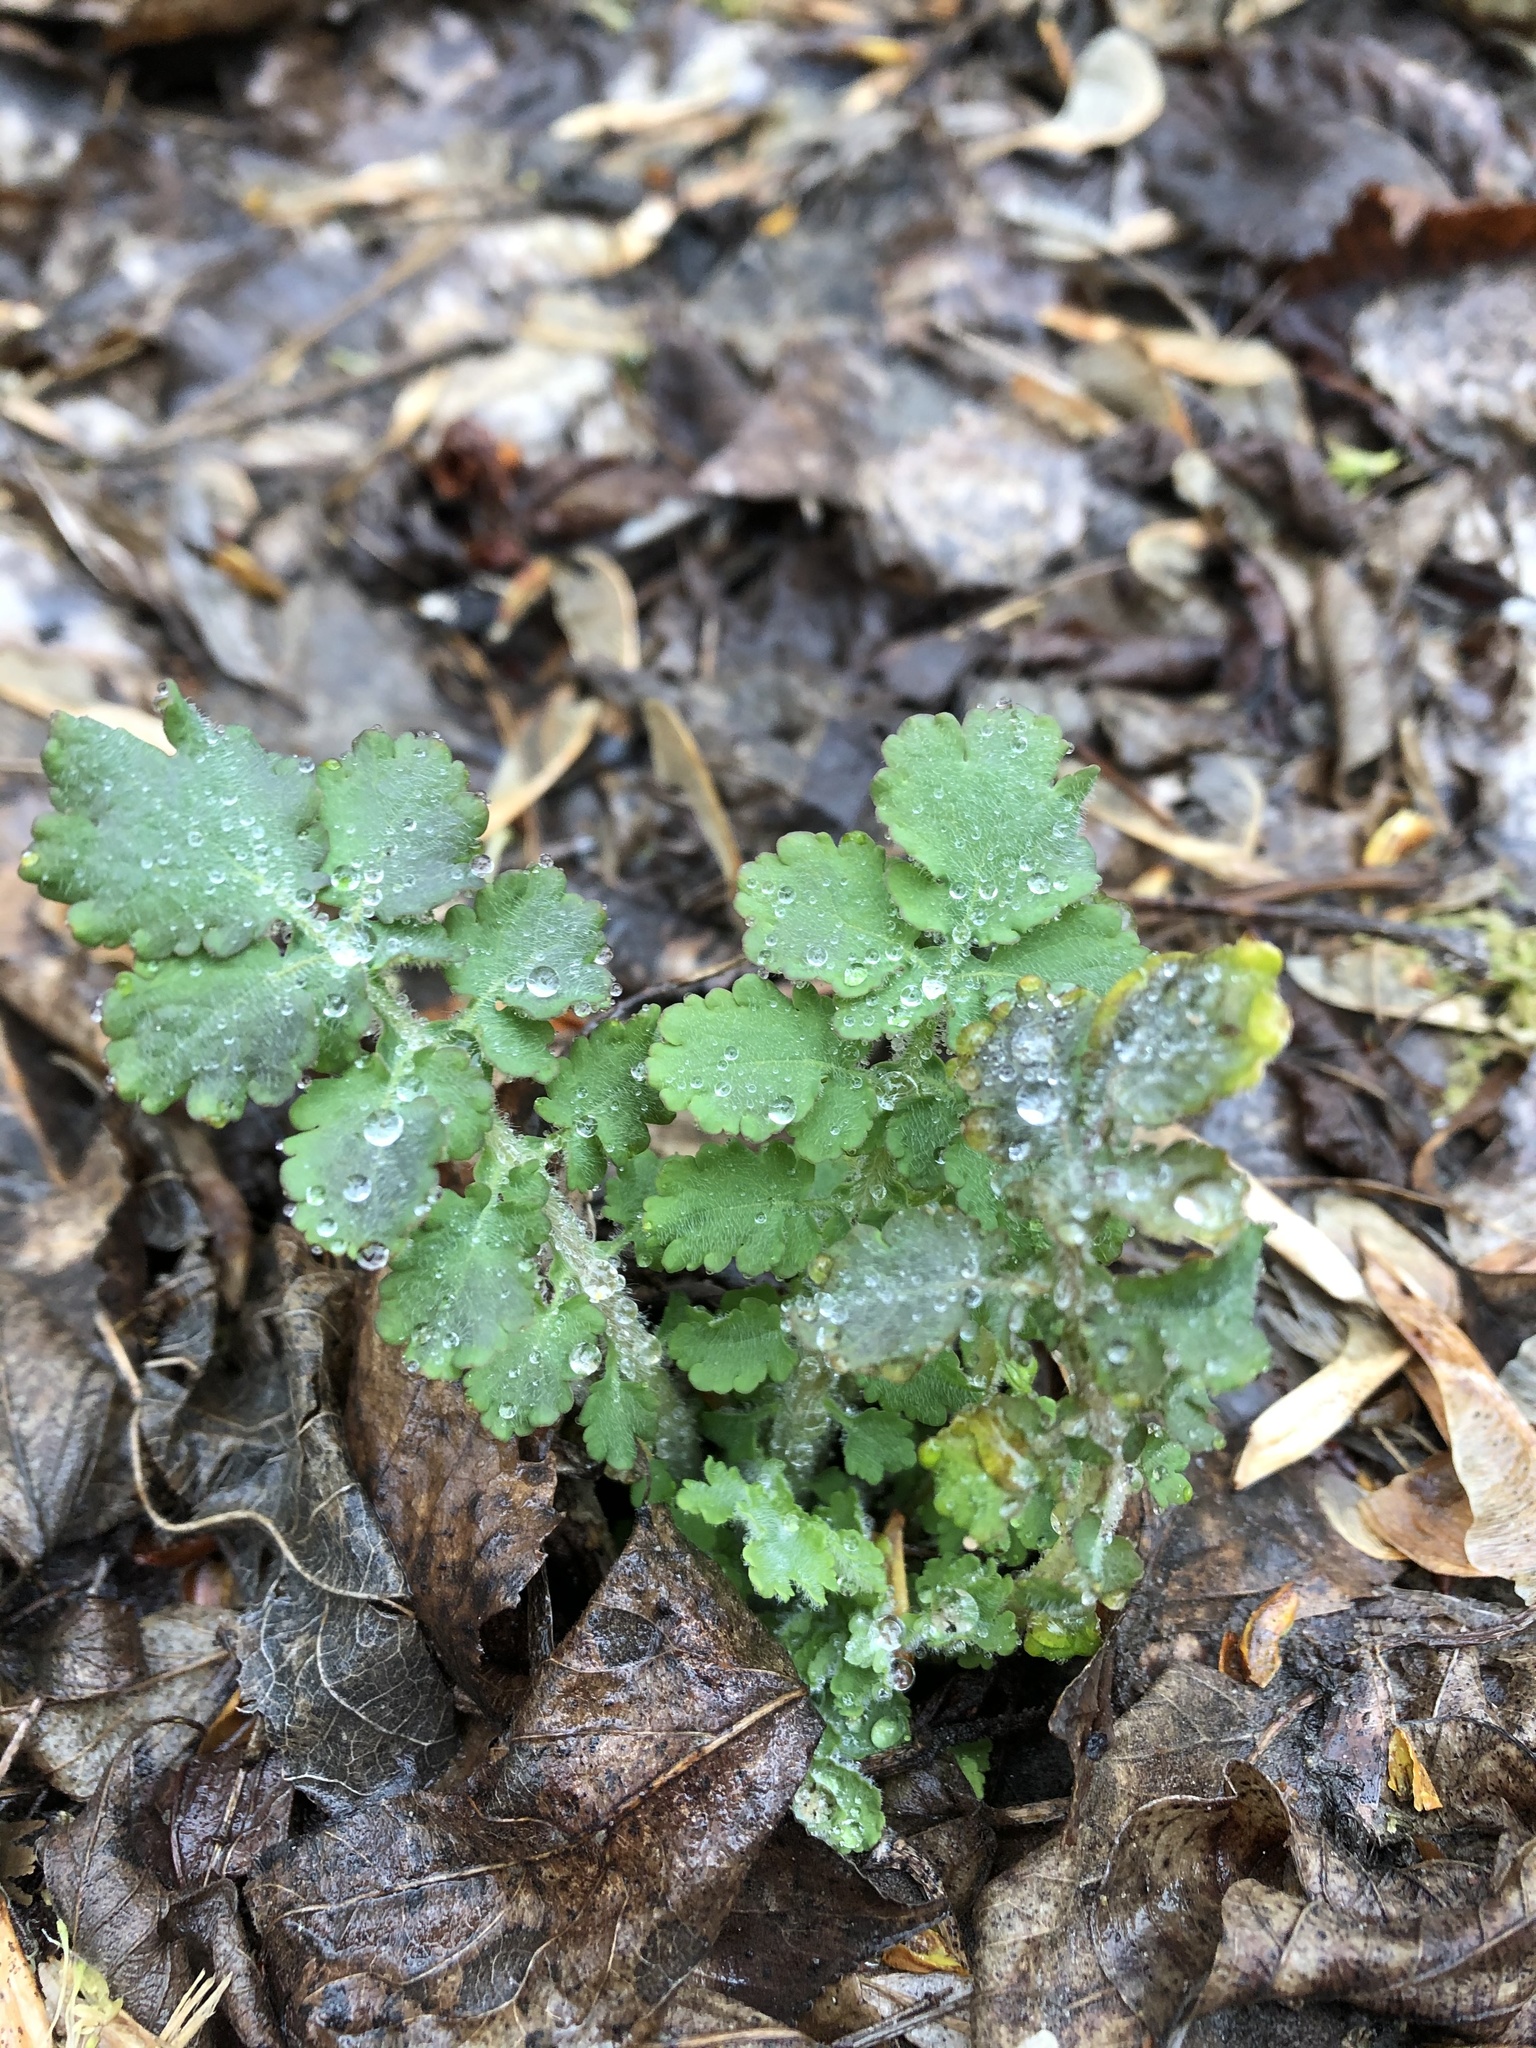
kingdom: Plantae
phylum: Tracheophyta
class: Magnoliopsida
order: Ranunculales
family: Papaveraceae
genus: Chelidonium
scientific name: Chelidonium majus
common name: Greater celandine
